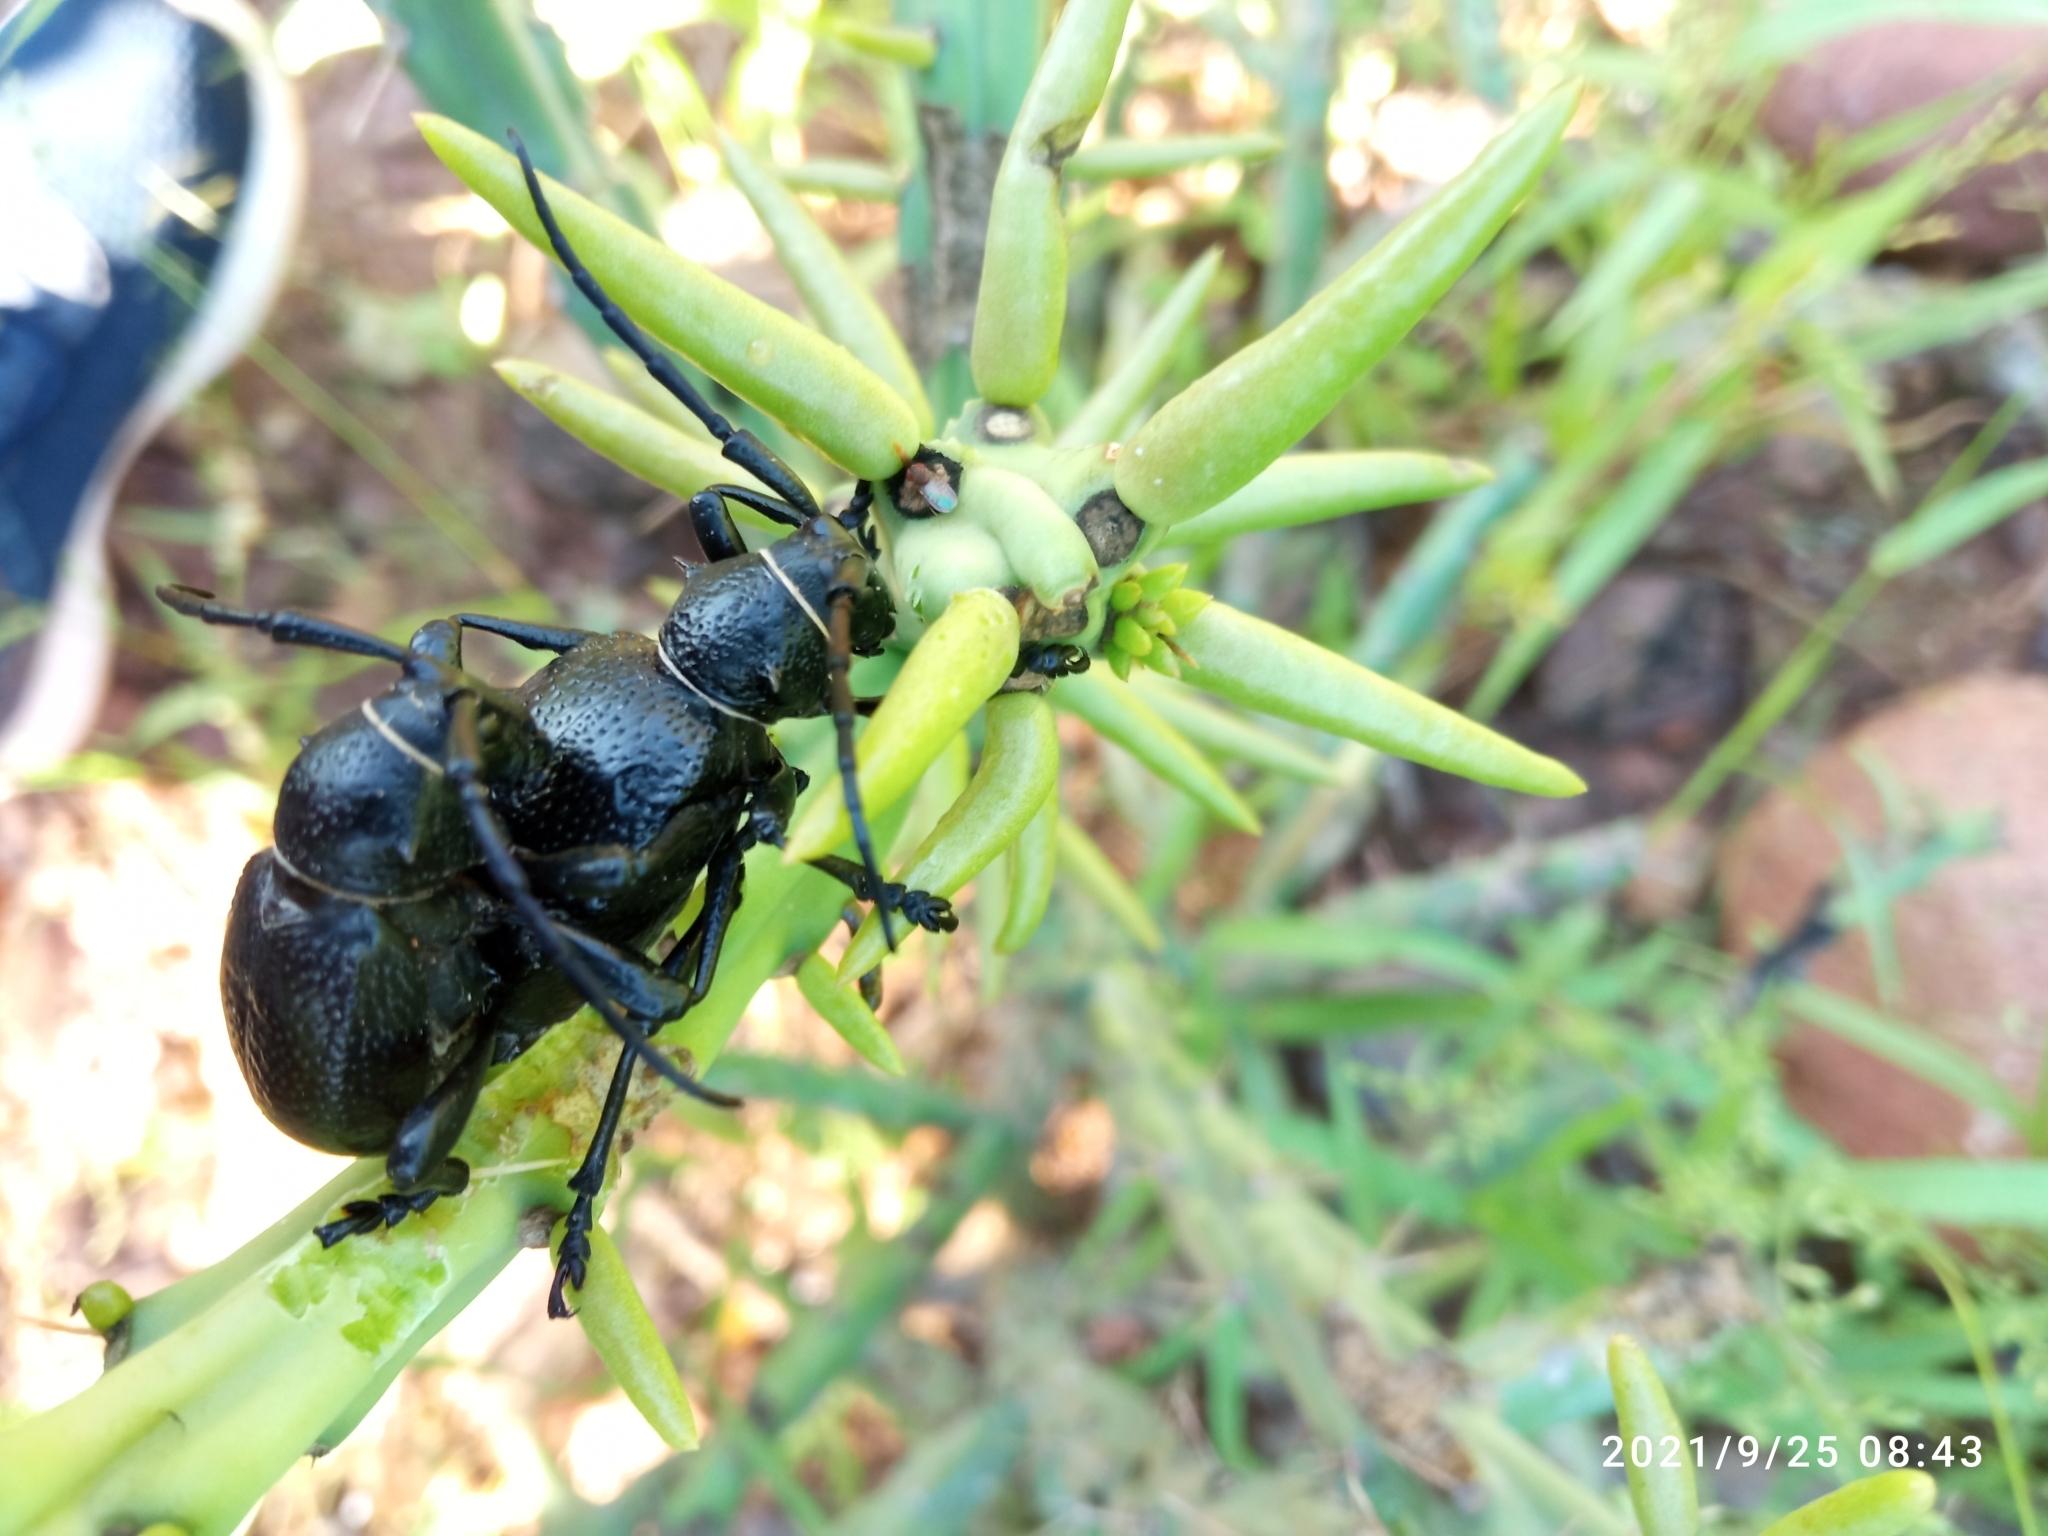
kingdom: Animalia
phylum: Arthropoda
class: Insecta
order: Coleoptera
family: Cerambycidae
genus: Moneilema
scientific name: Moneilema gigas
